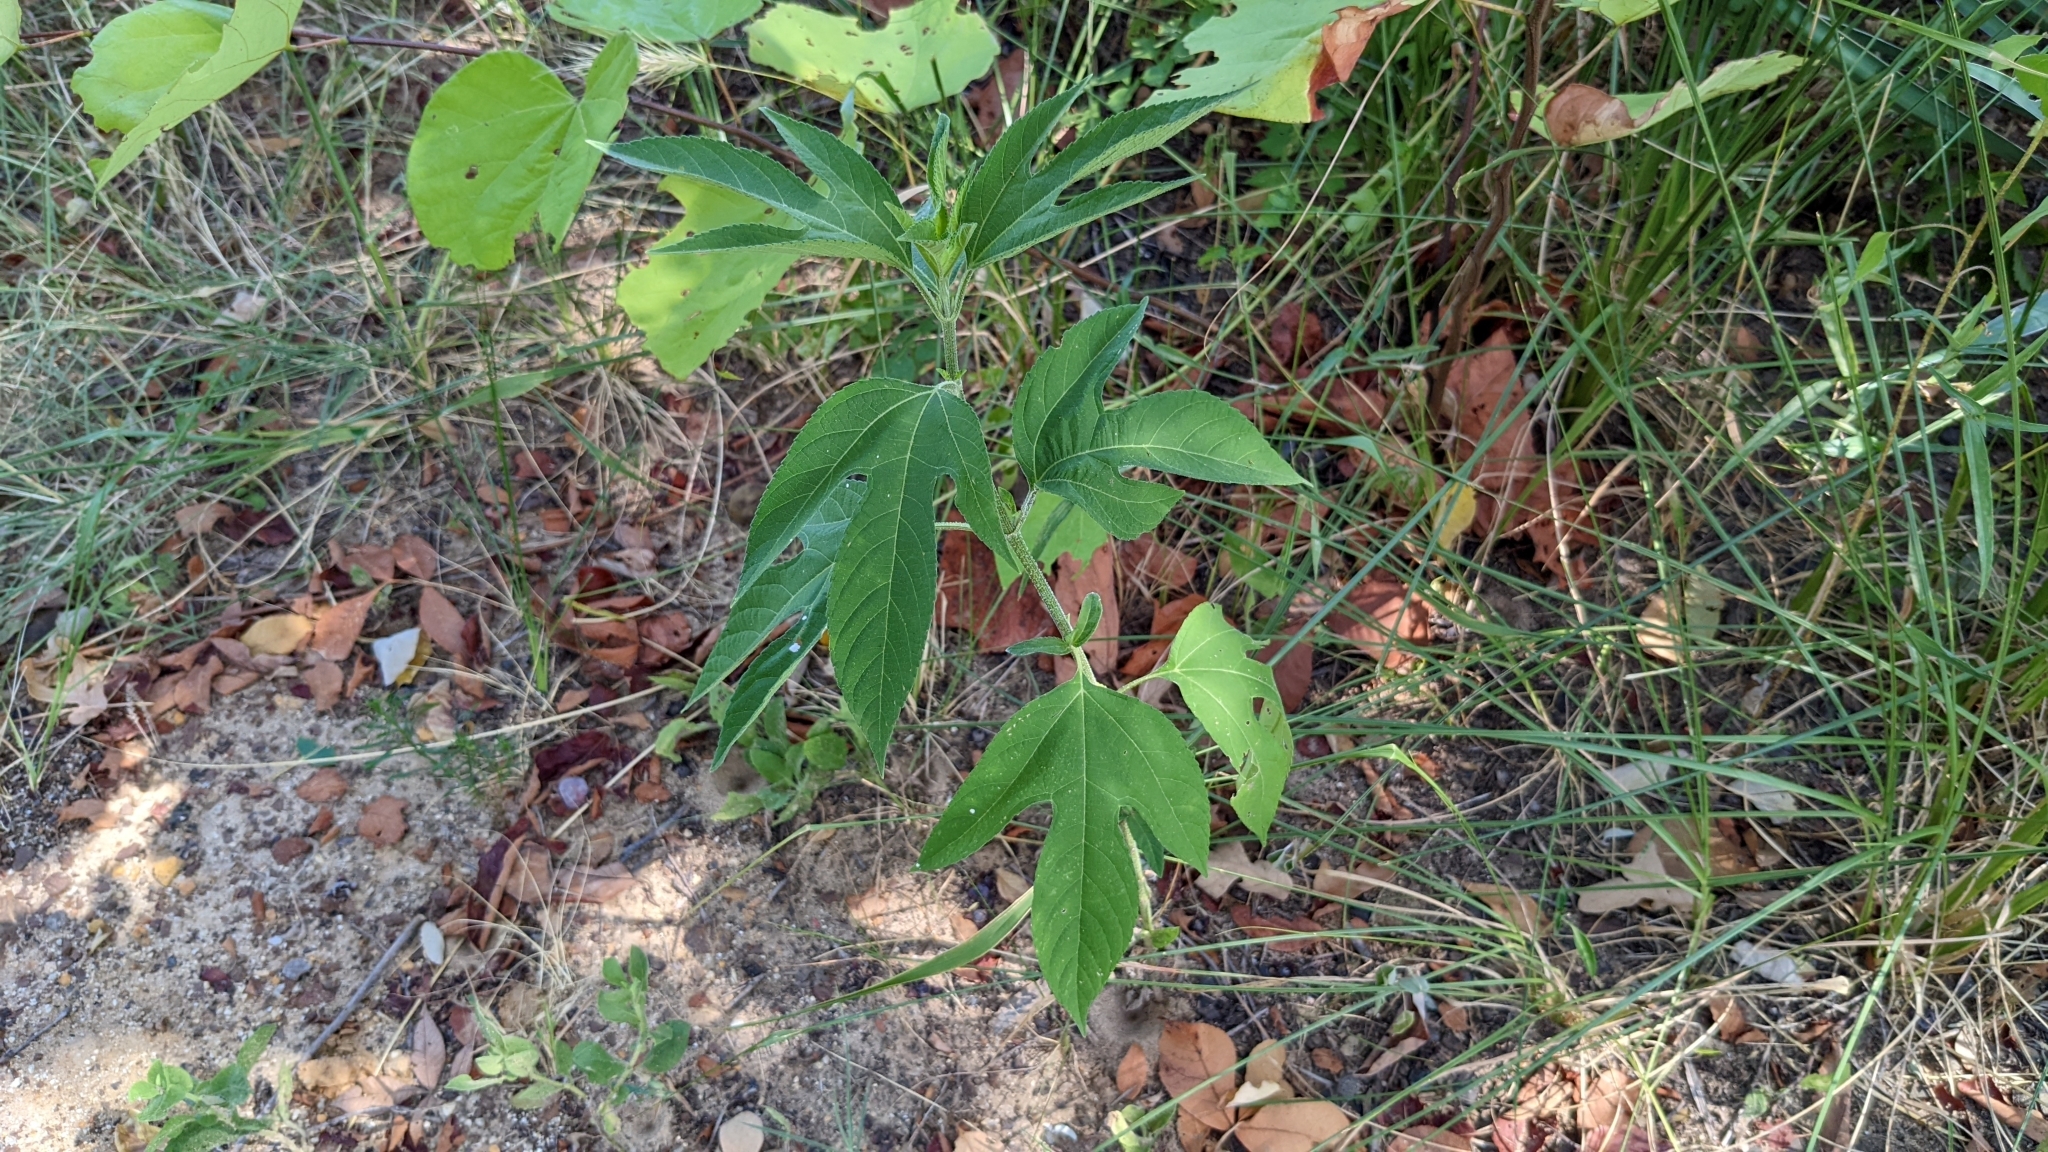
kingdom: Plantae
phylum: Tracheophyta
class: Magnoliopsida
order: Asterales
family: Asteraceae
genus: Ambrosia
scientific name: Ambrosia trifida
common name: Giant ragweed
